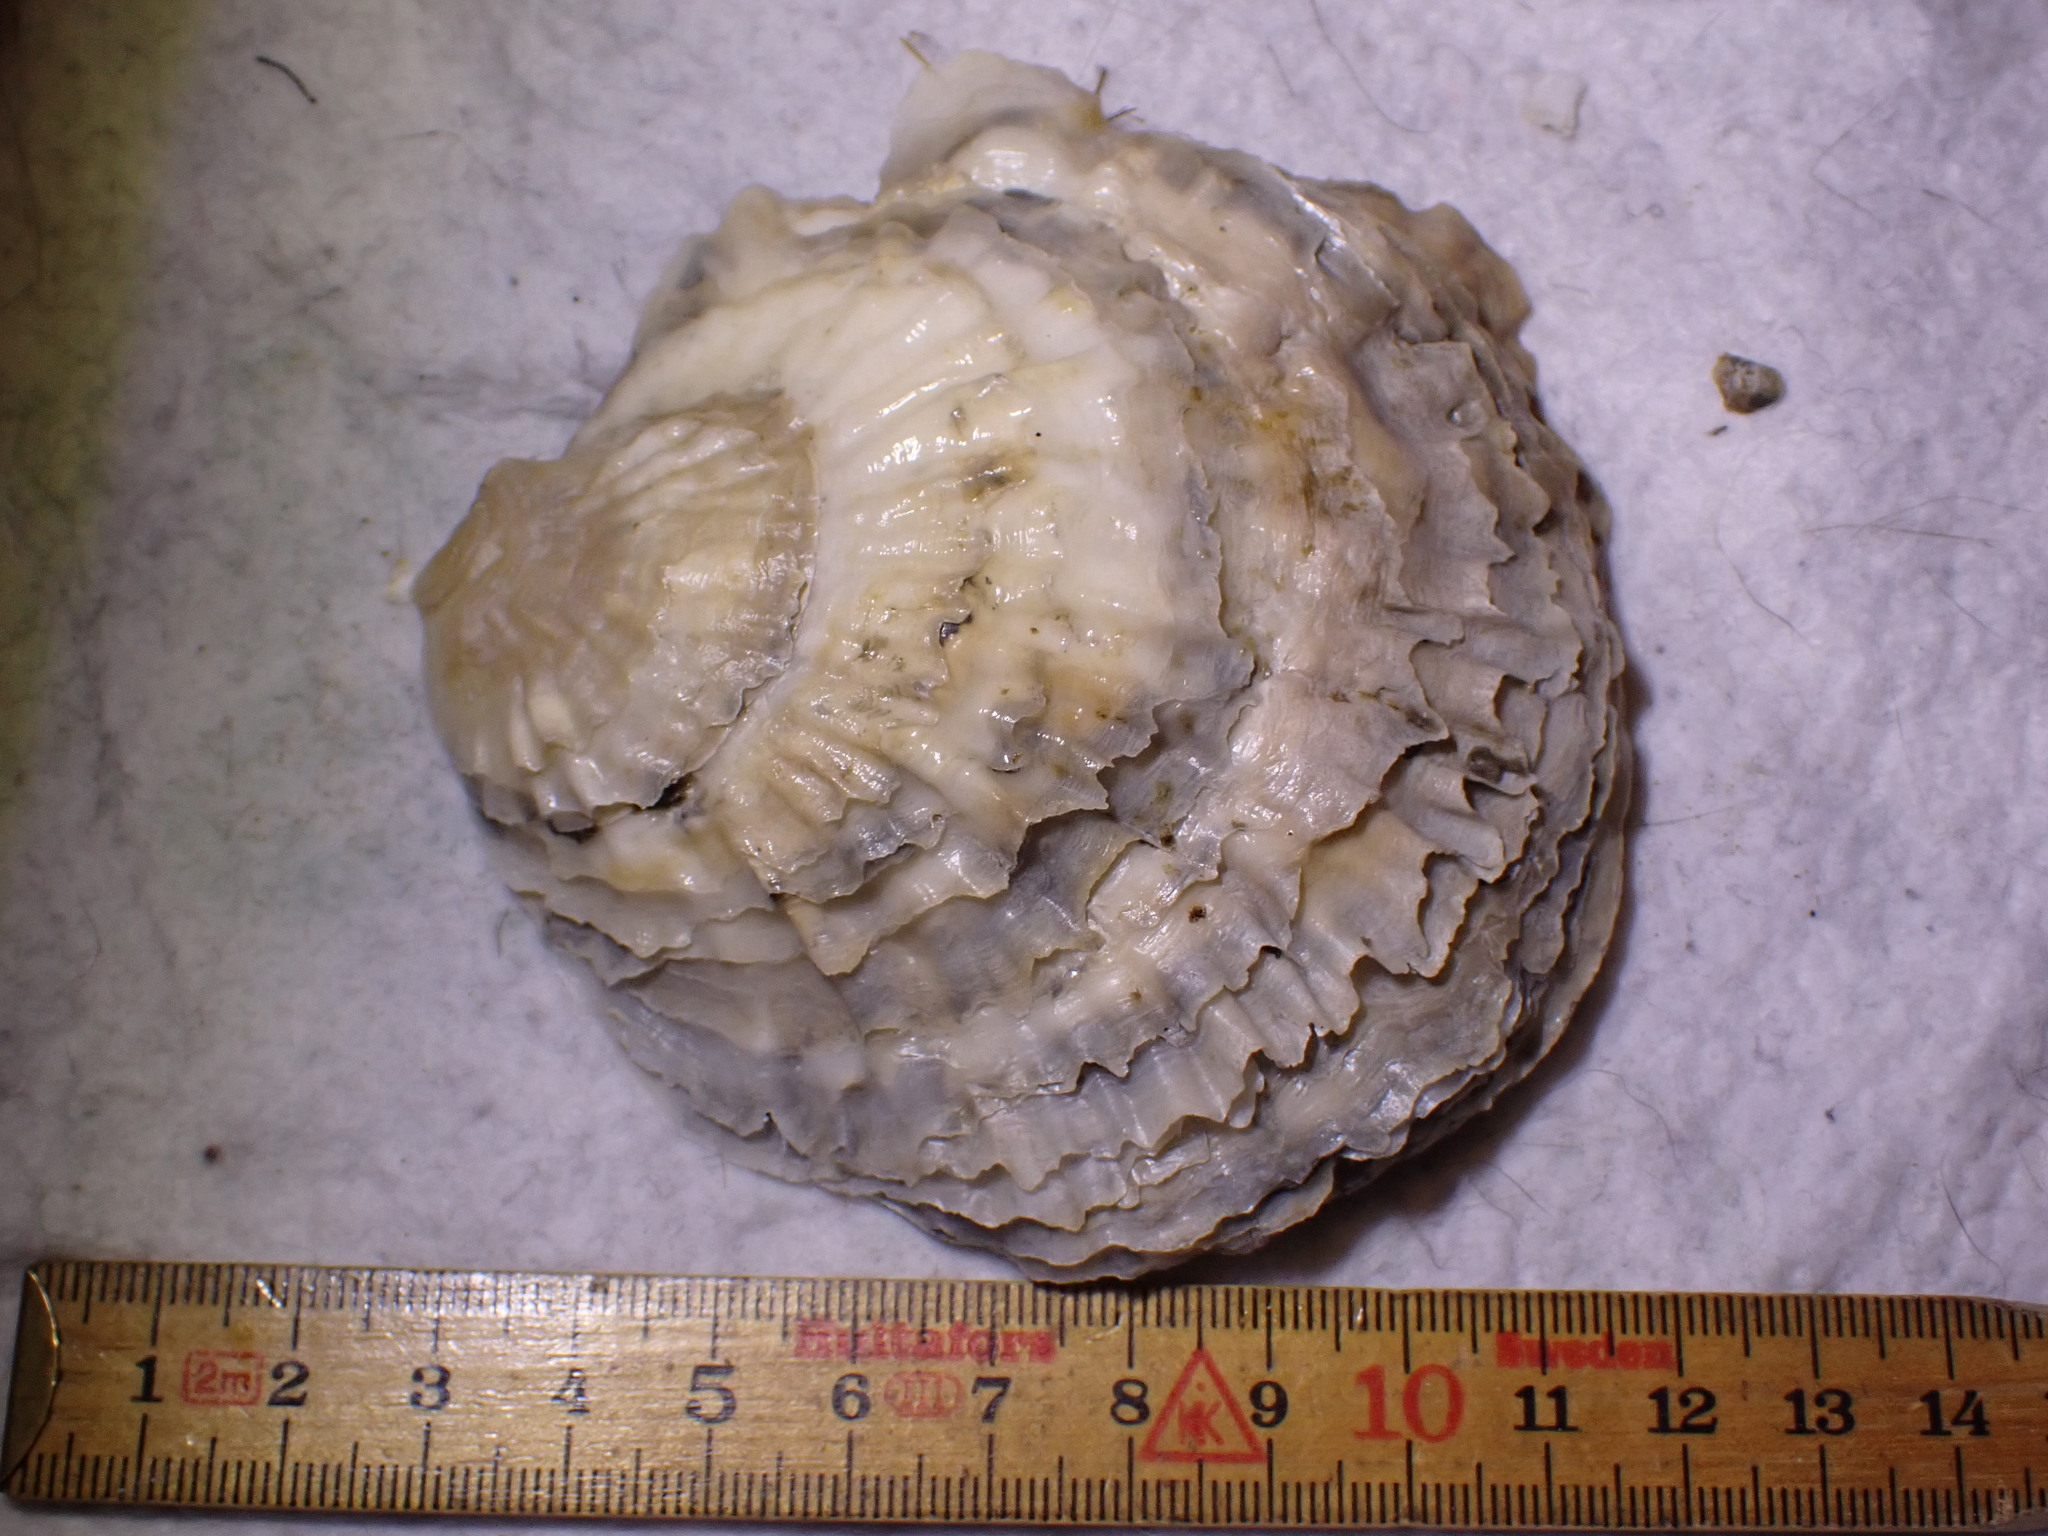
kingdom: Animalia
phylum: Mollusca
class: Bivalvia
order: Ostreida
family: Ostreidae
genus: Ostrea
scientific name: Ostrea edulis
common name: Flat oyster
